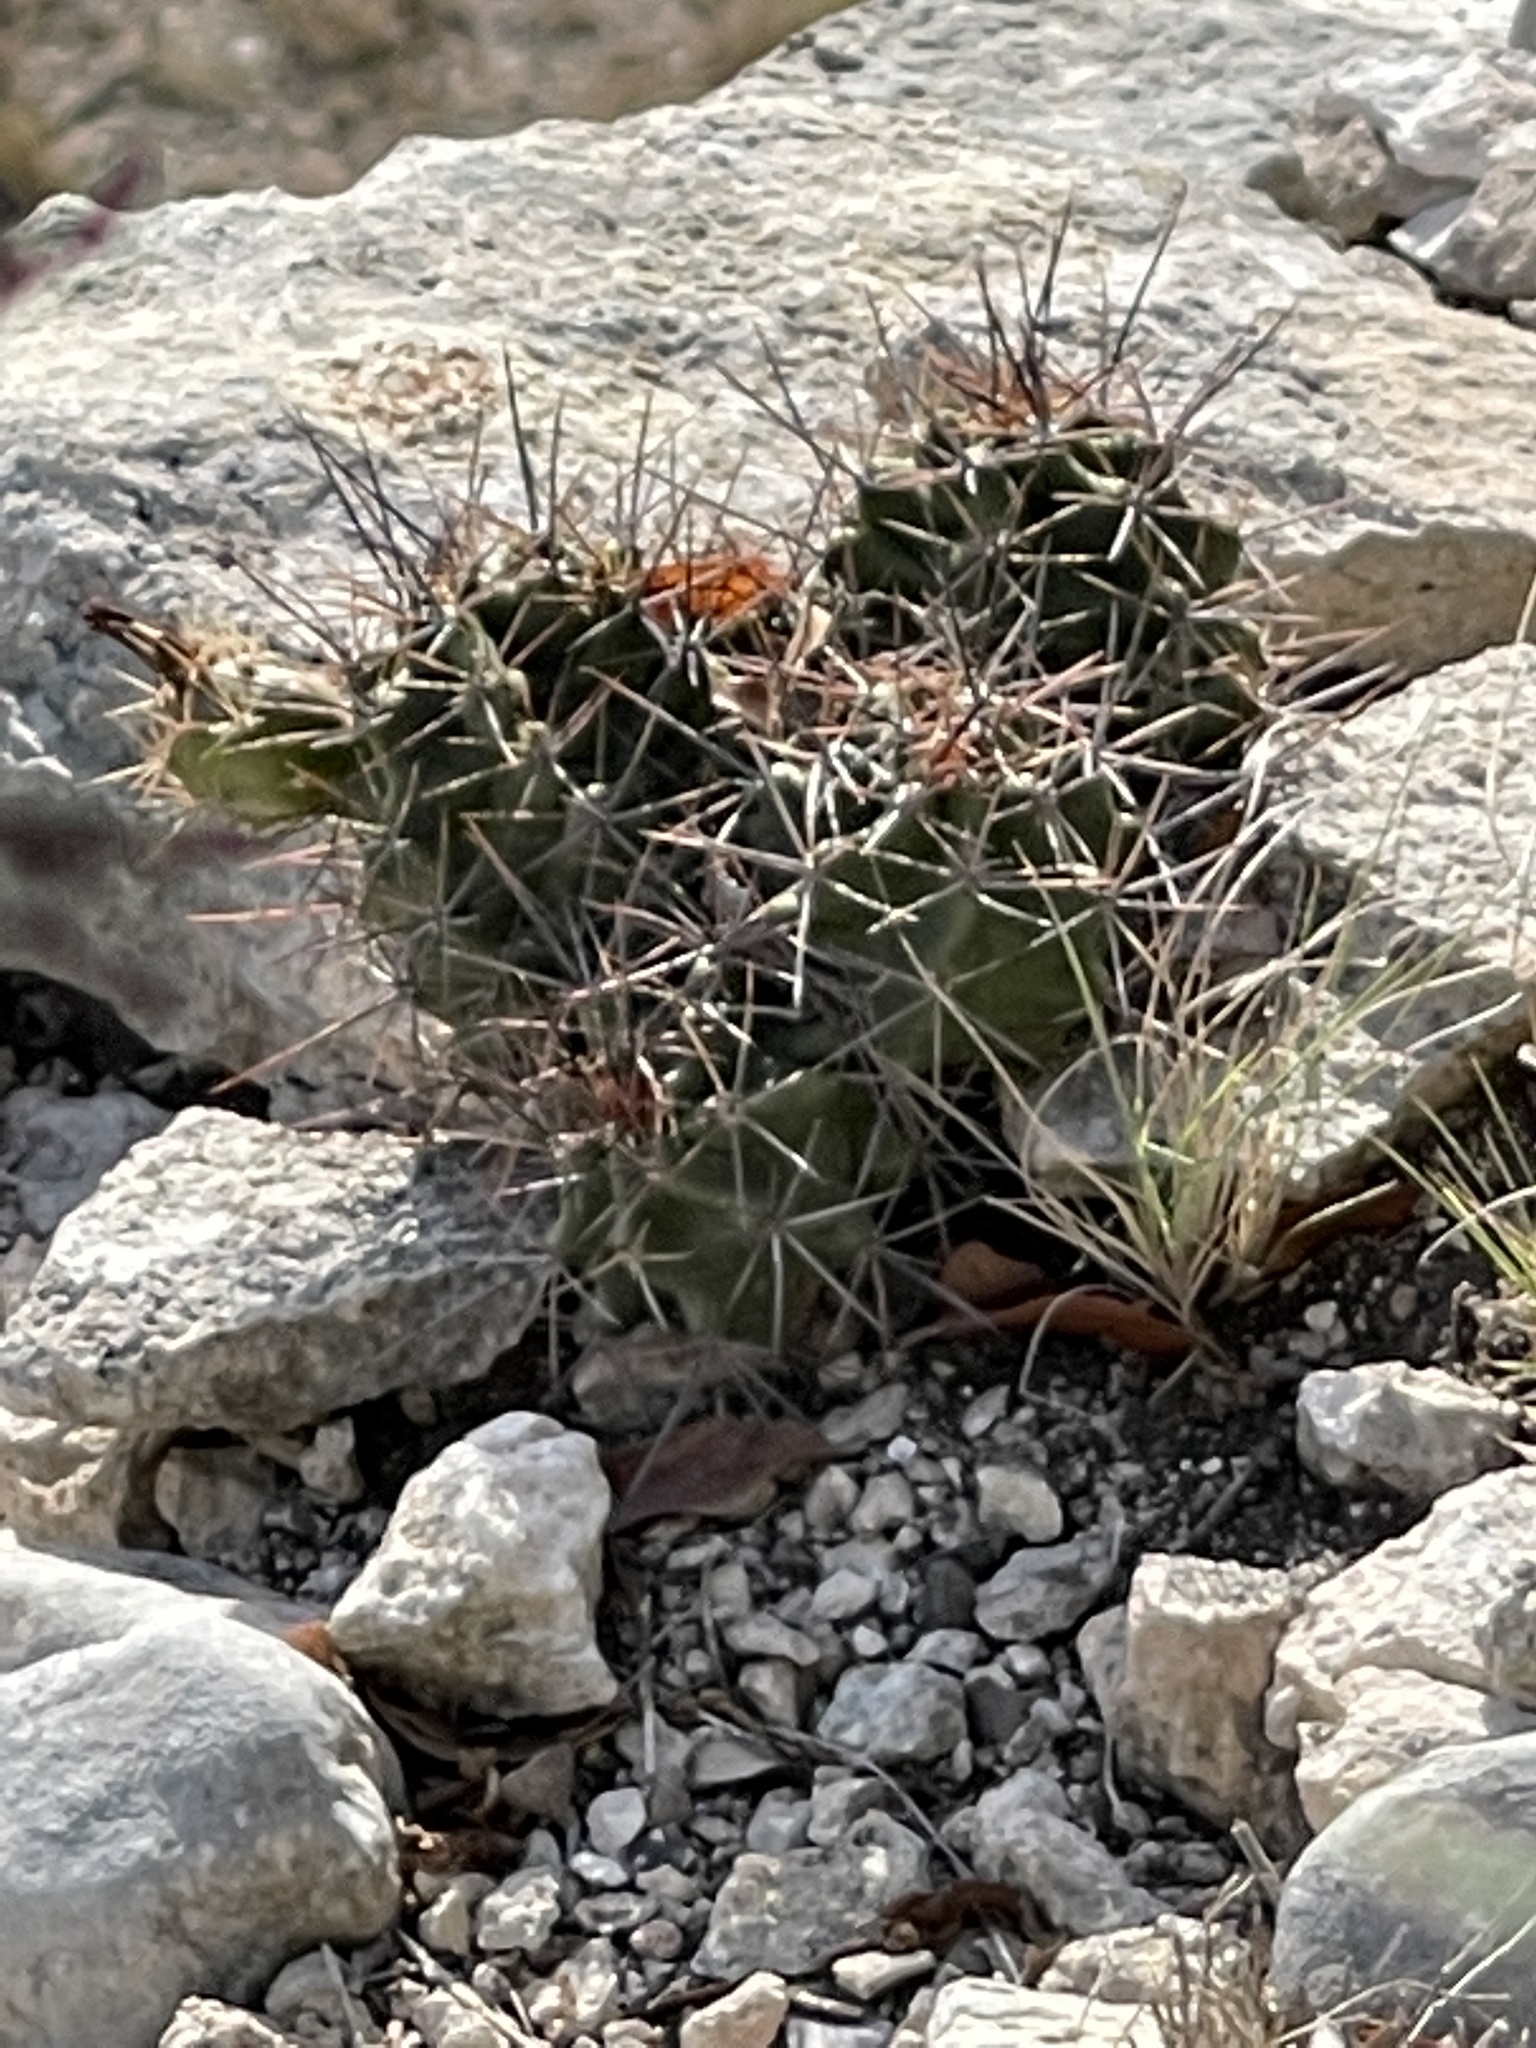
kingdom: Plantae
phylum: Tracheophyta
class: Magnoliopsida
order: Caryophyllales
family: Cactaceae
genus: Echinocereus
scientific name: Echinocereus coccineus
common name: Scarlet hedgehog cactus
